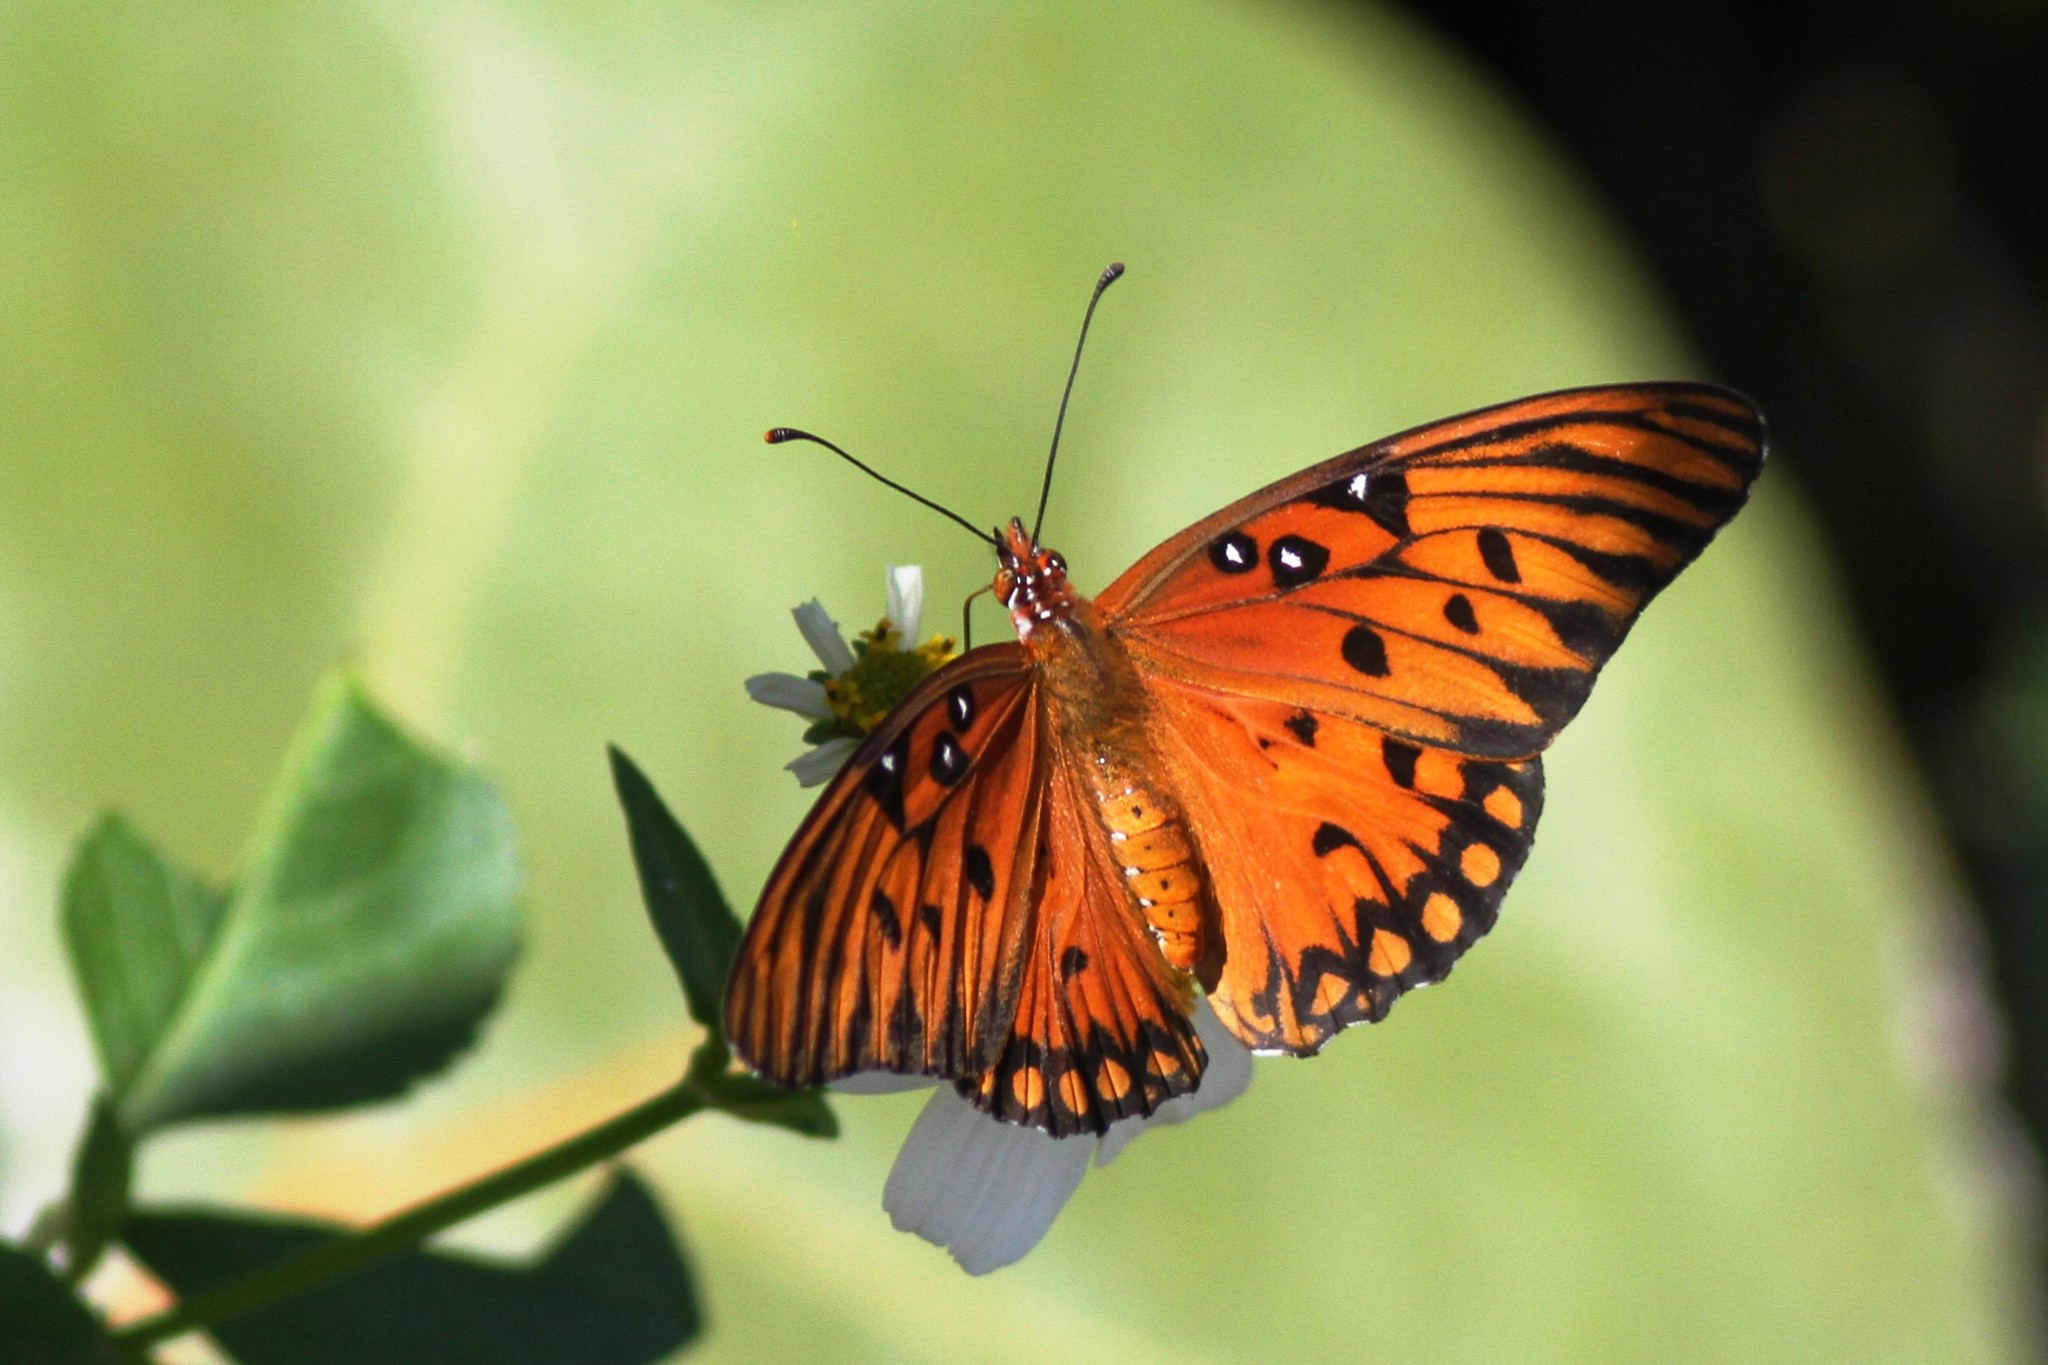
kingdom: Animalia
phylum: Arthropoda
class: Insecta
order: Lepidoptera
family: Nymphalidae
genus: Dione
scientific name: Dione vanillae
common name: Gulf fritillary
